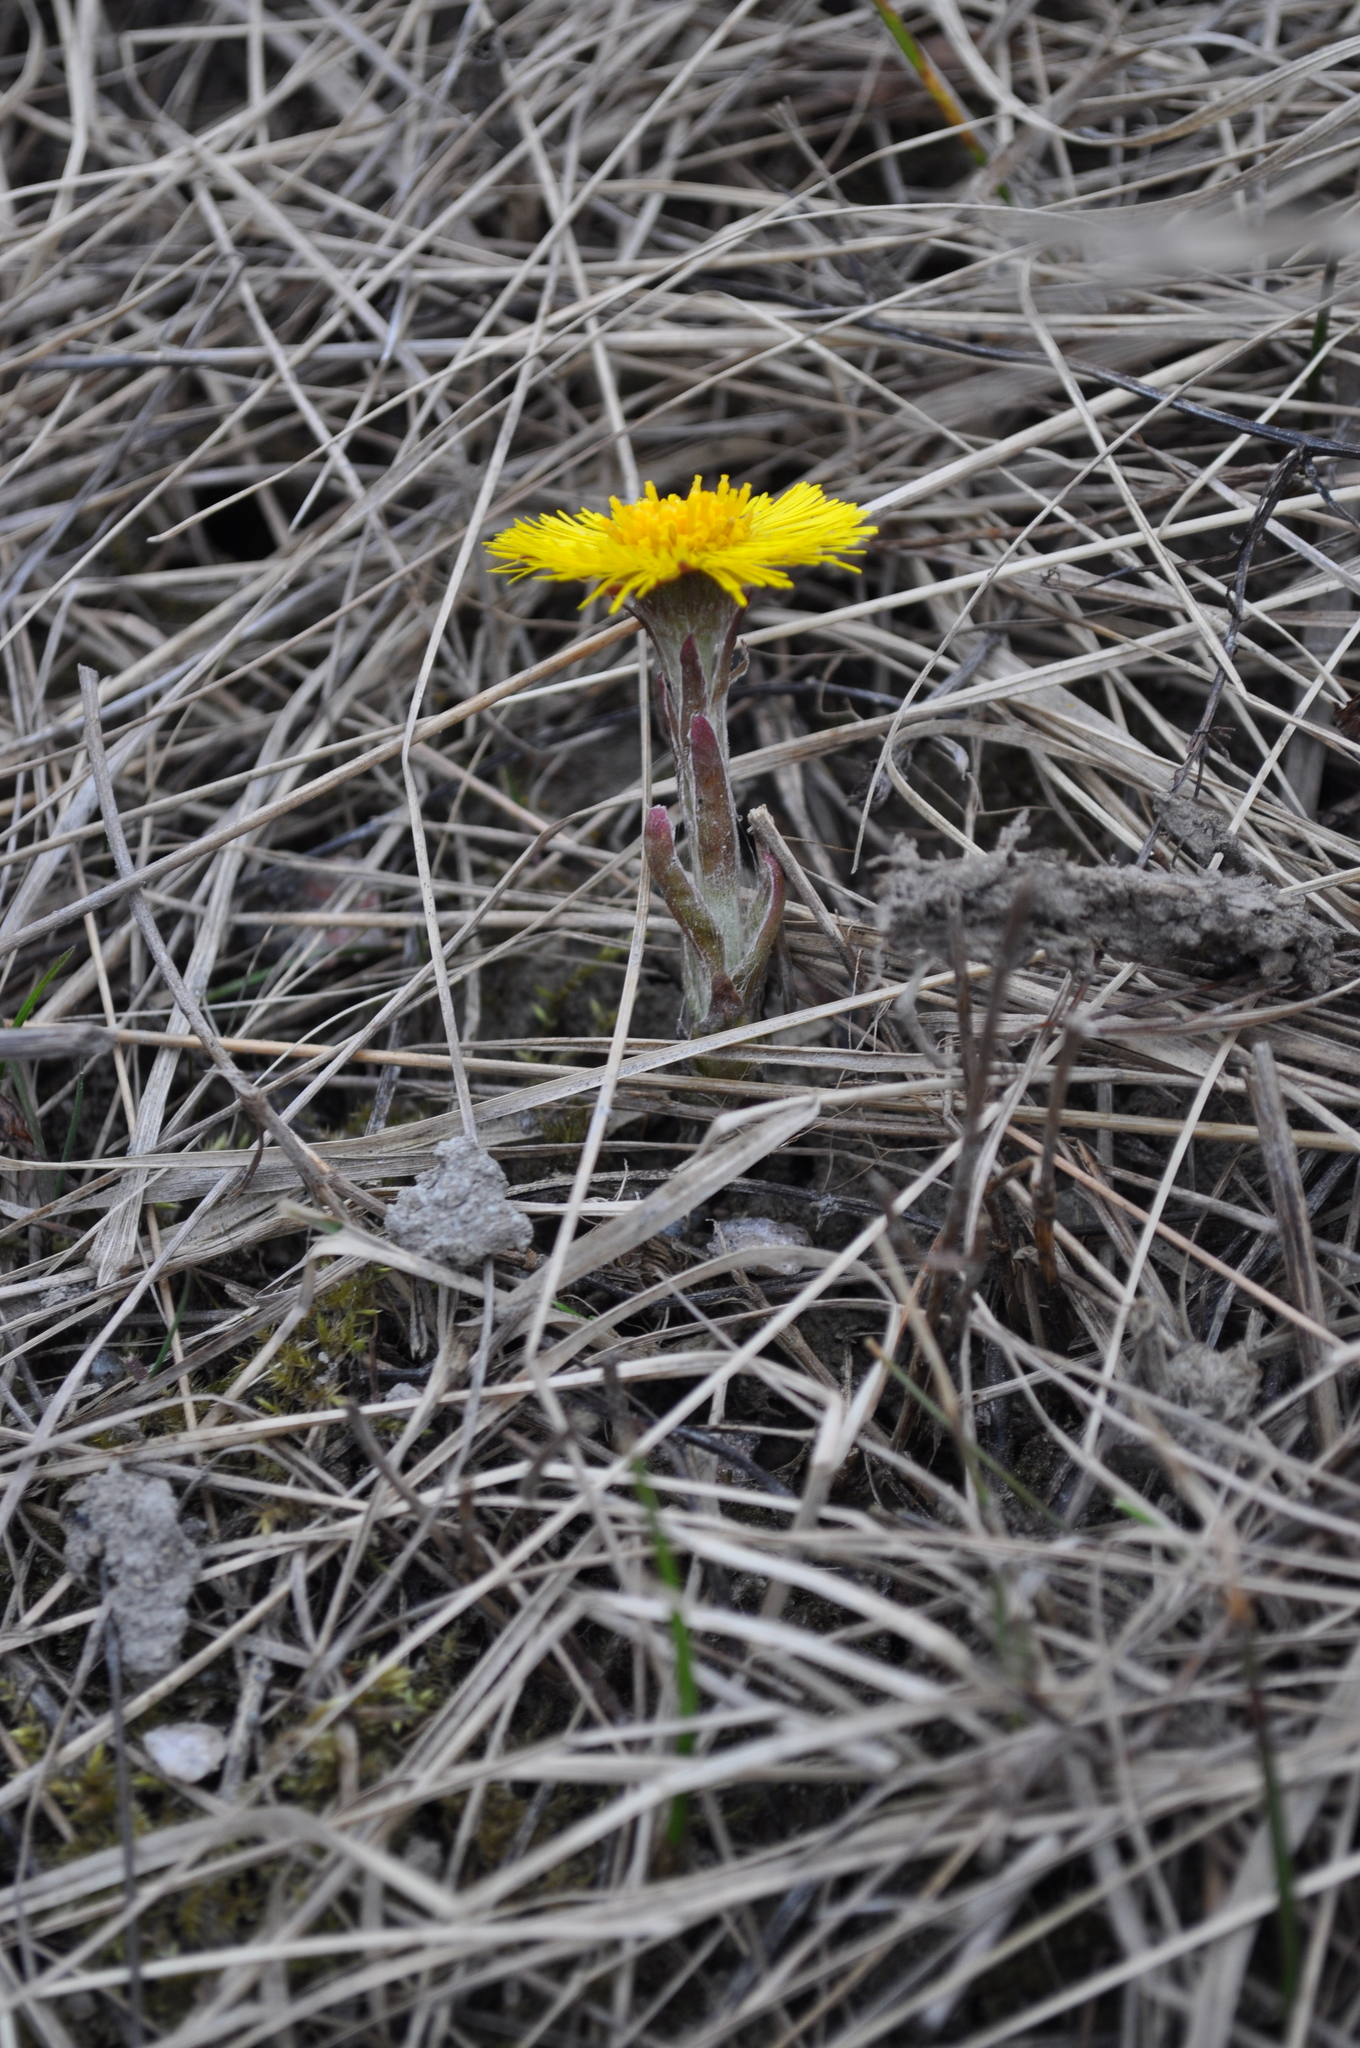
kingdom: Plantae
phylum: Tracheophyta
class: Magnoliopsida
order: Asterales
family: Asteraceae
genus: Tussilago
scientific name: Tussilago farfara
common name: Coltsfoot
